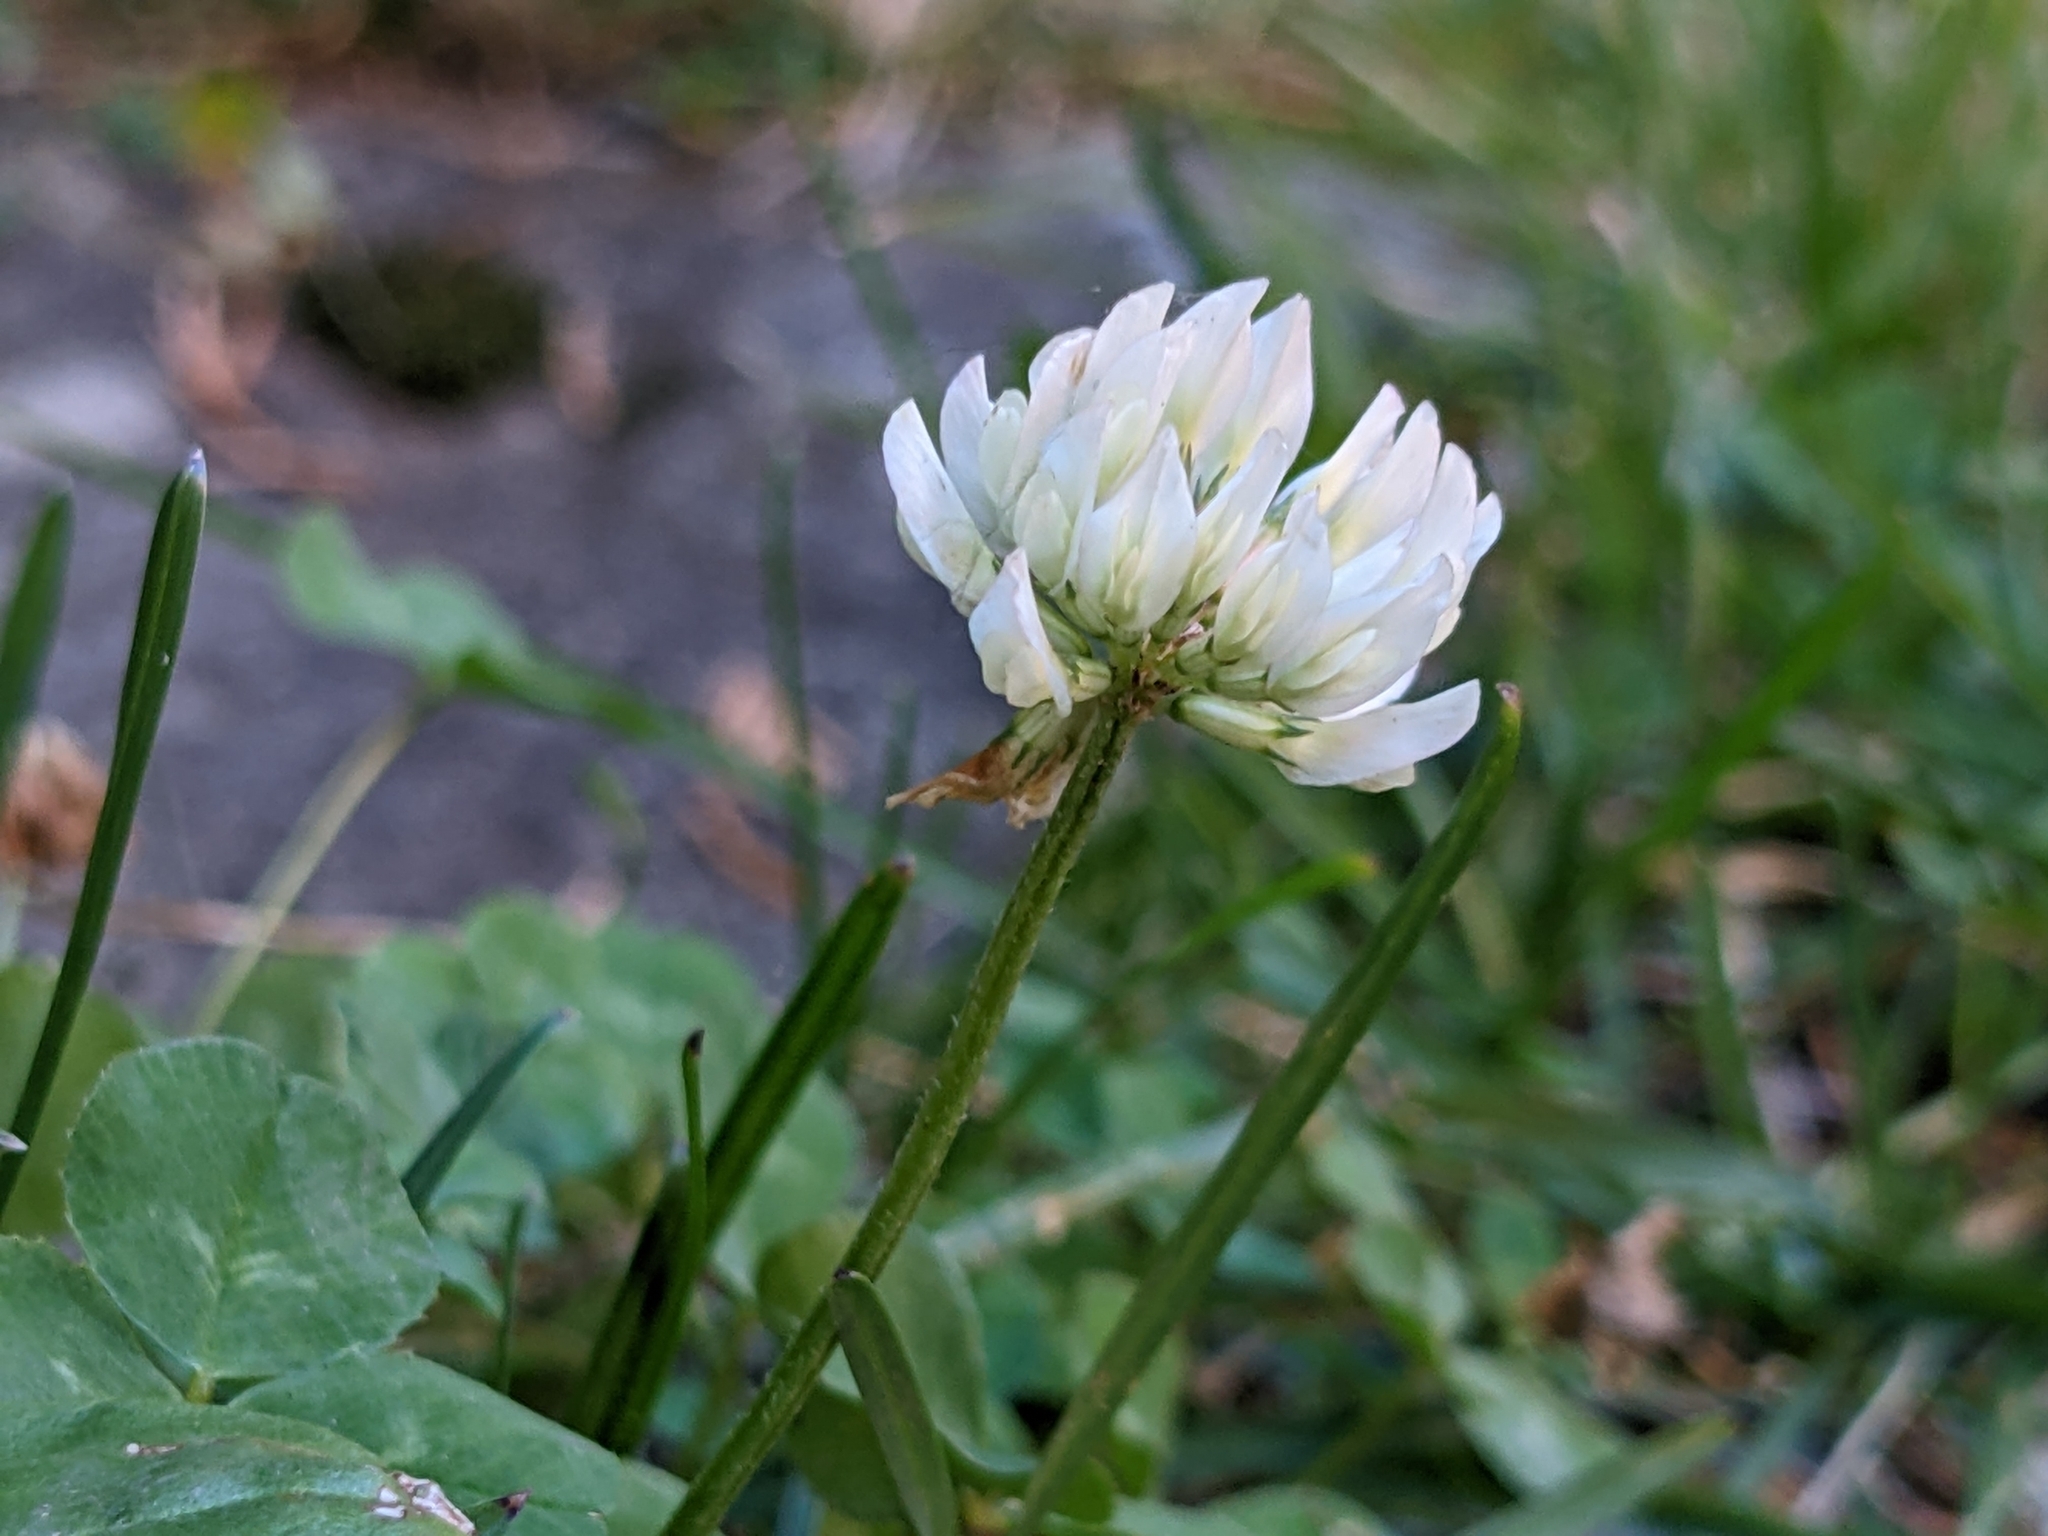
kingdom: Plantae
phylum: Tracheophyta
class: Magnoliopsida
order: Fabales
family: Fabaceae
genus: Trifolium
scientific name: Trifolium repens
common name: White clover
